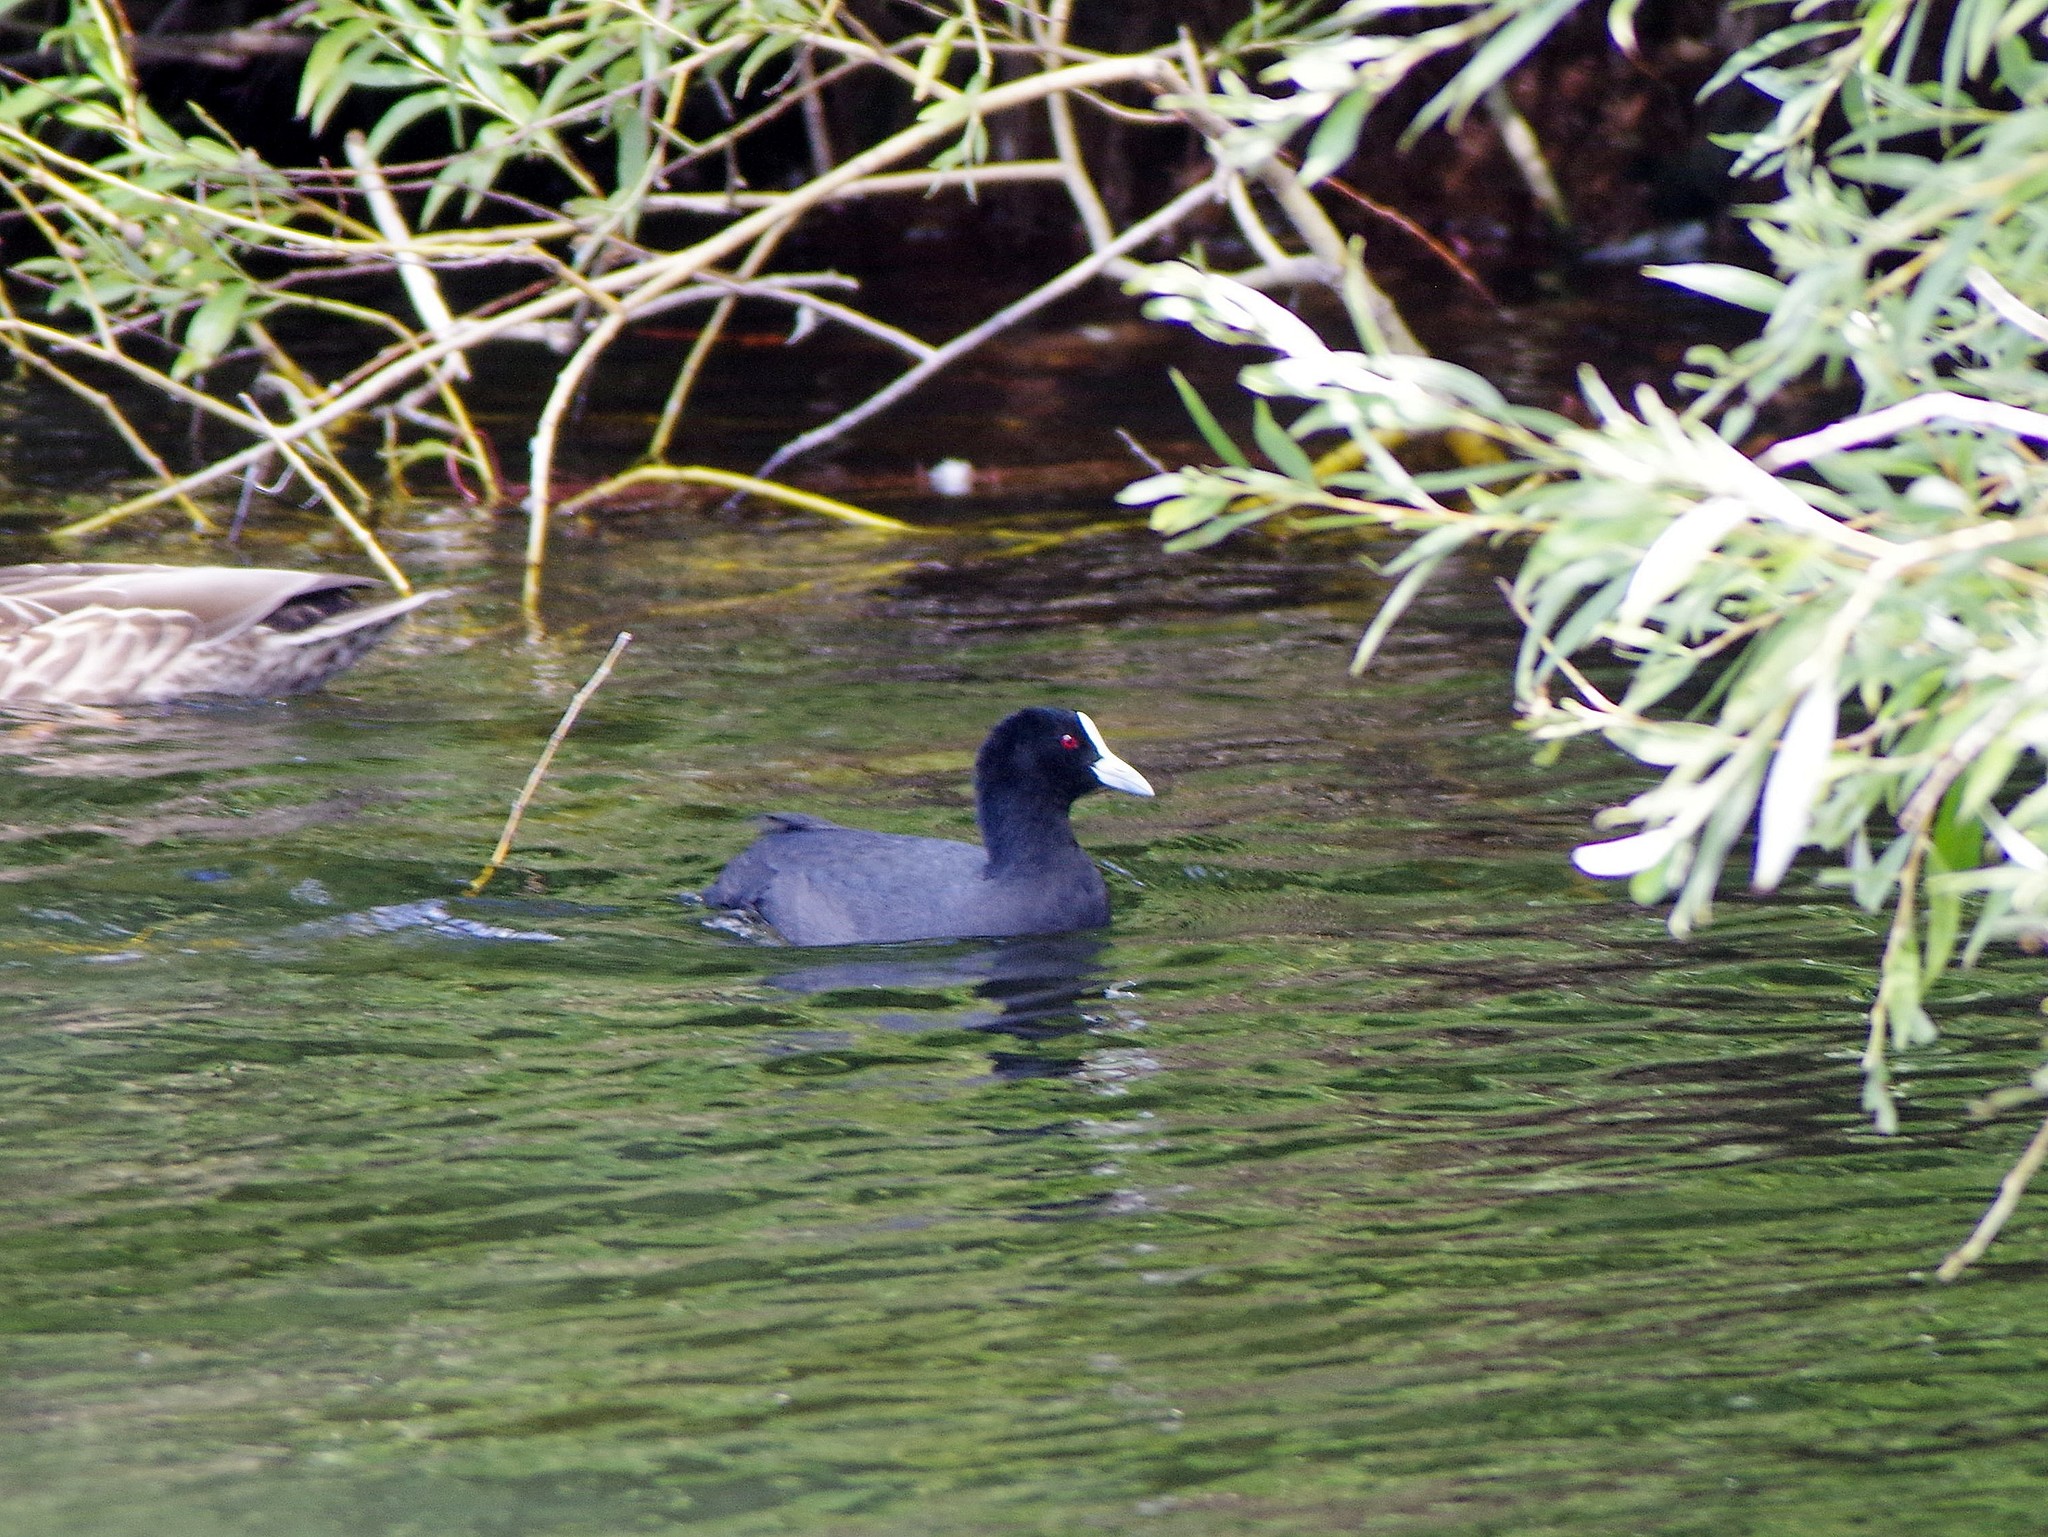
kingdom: Animalia
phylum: Chordata
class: Aves
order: Gruiformes
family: Rallidae
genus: Fulica
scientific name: Fulica atra
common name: Eurasian coot
